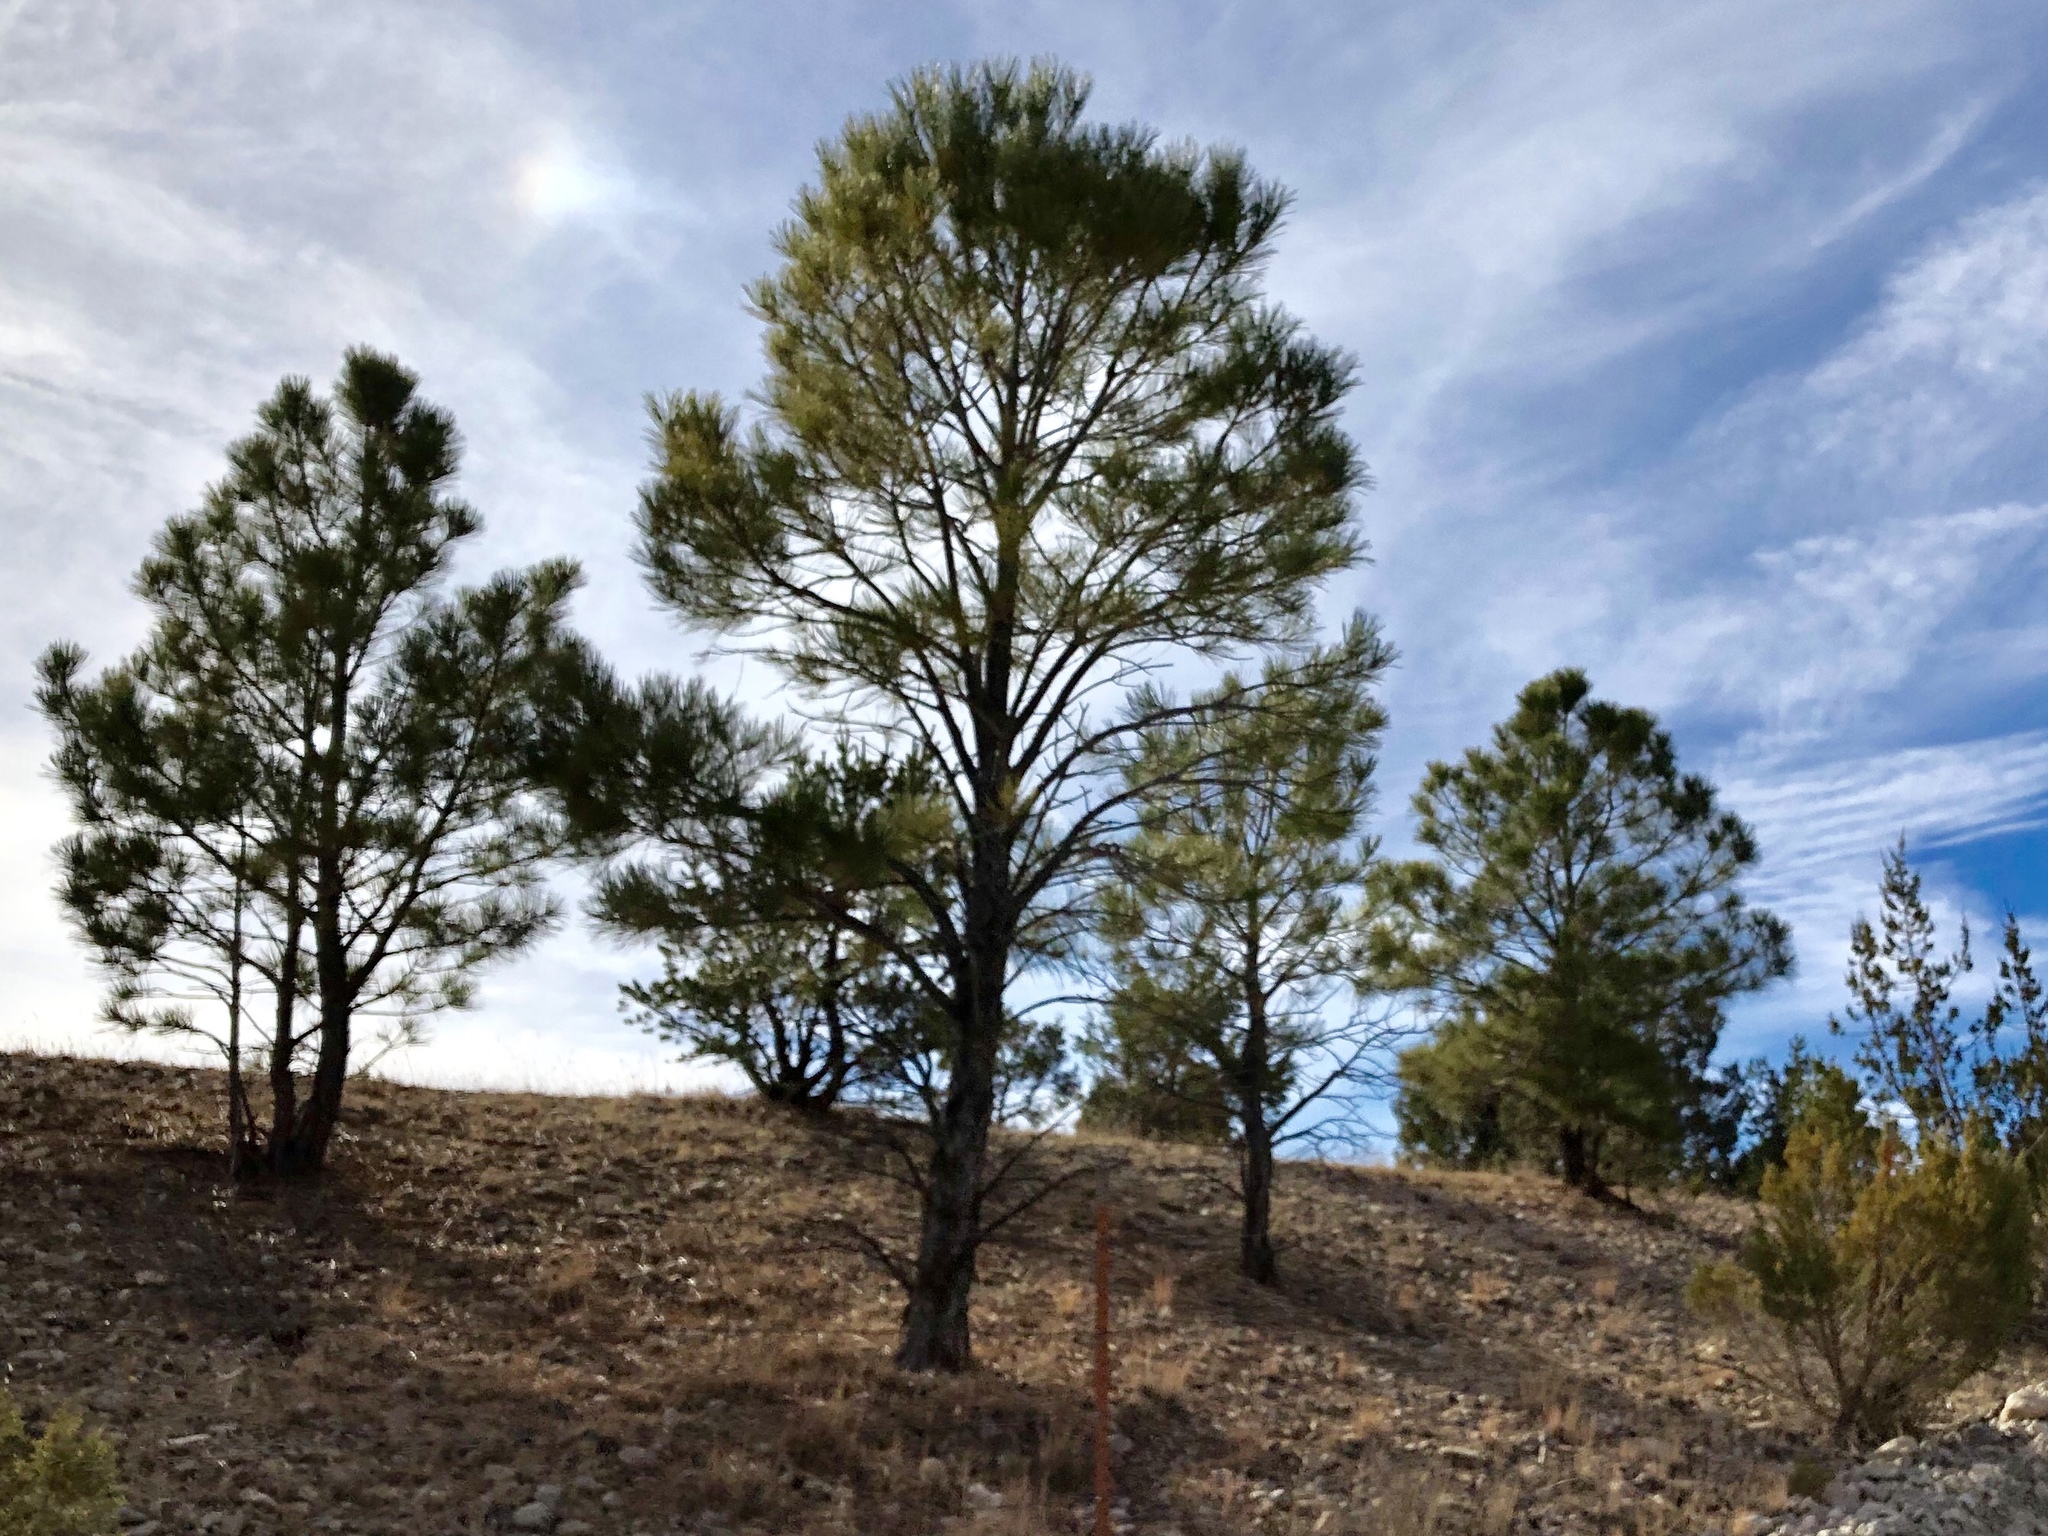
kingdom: Plantae
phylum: Tracheophyta
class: Pinopsida
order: Pinales
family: Pinaceae
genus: Pinus
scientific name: Pinus ponderosa
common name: Western yellow-pine
